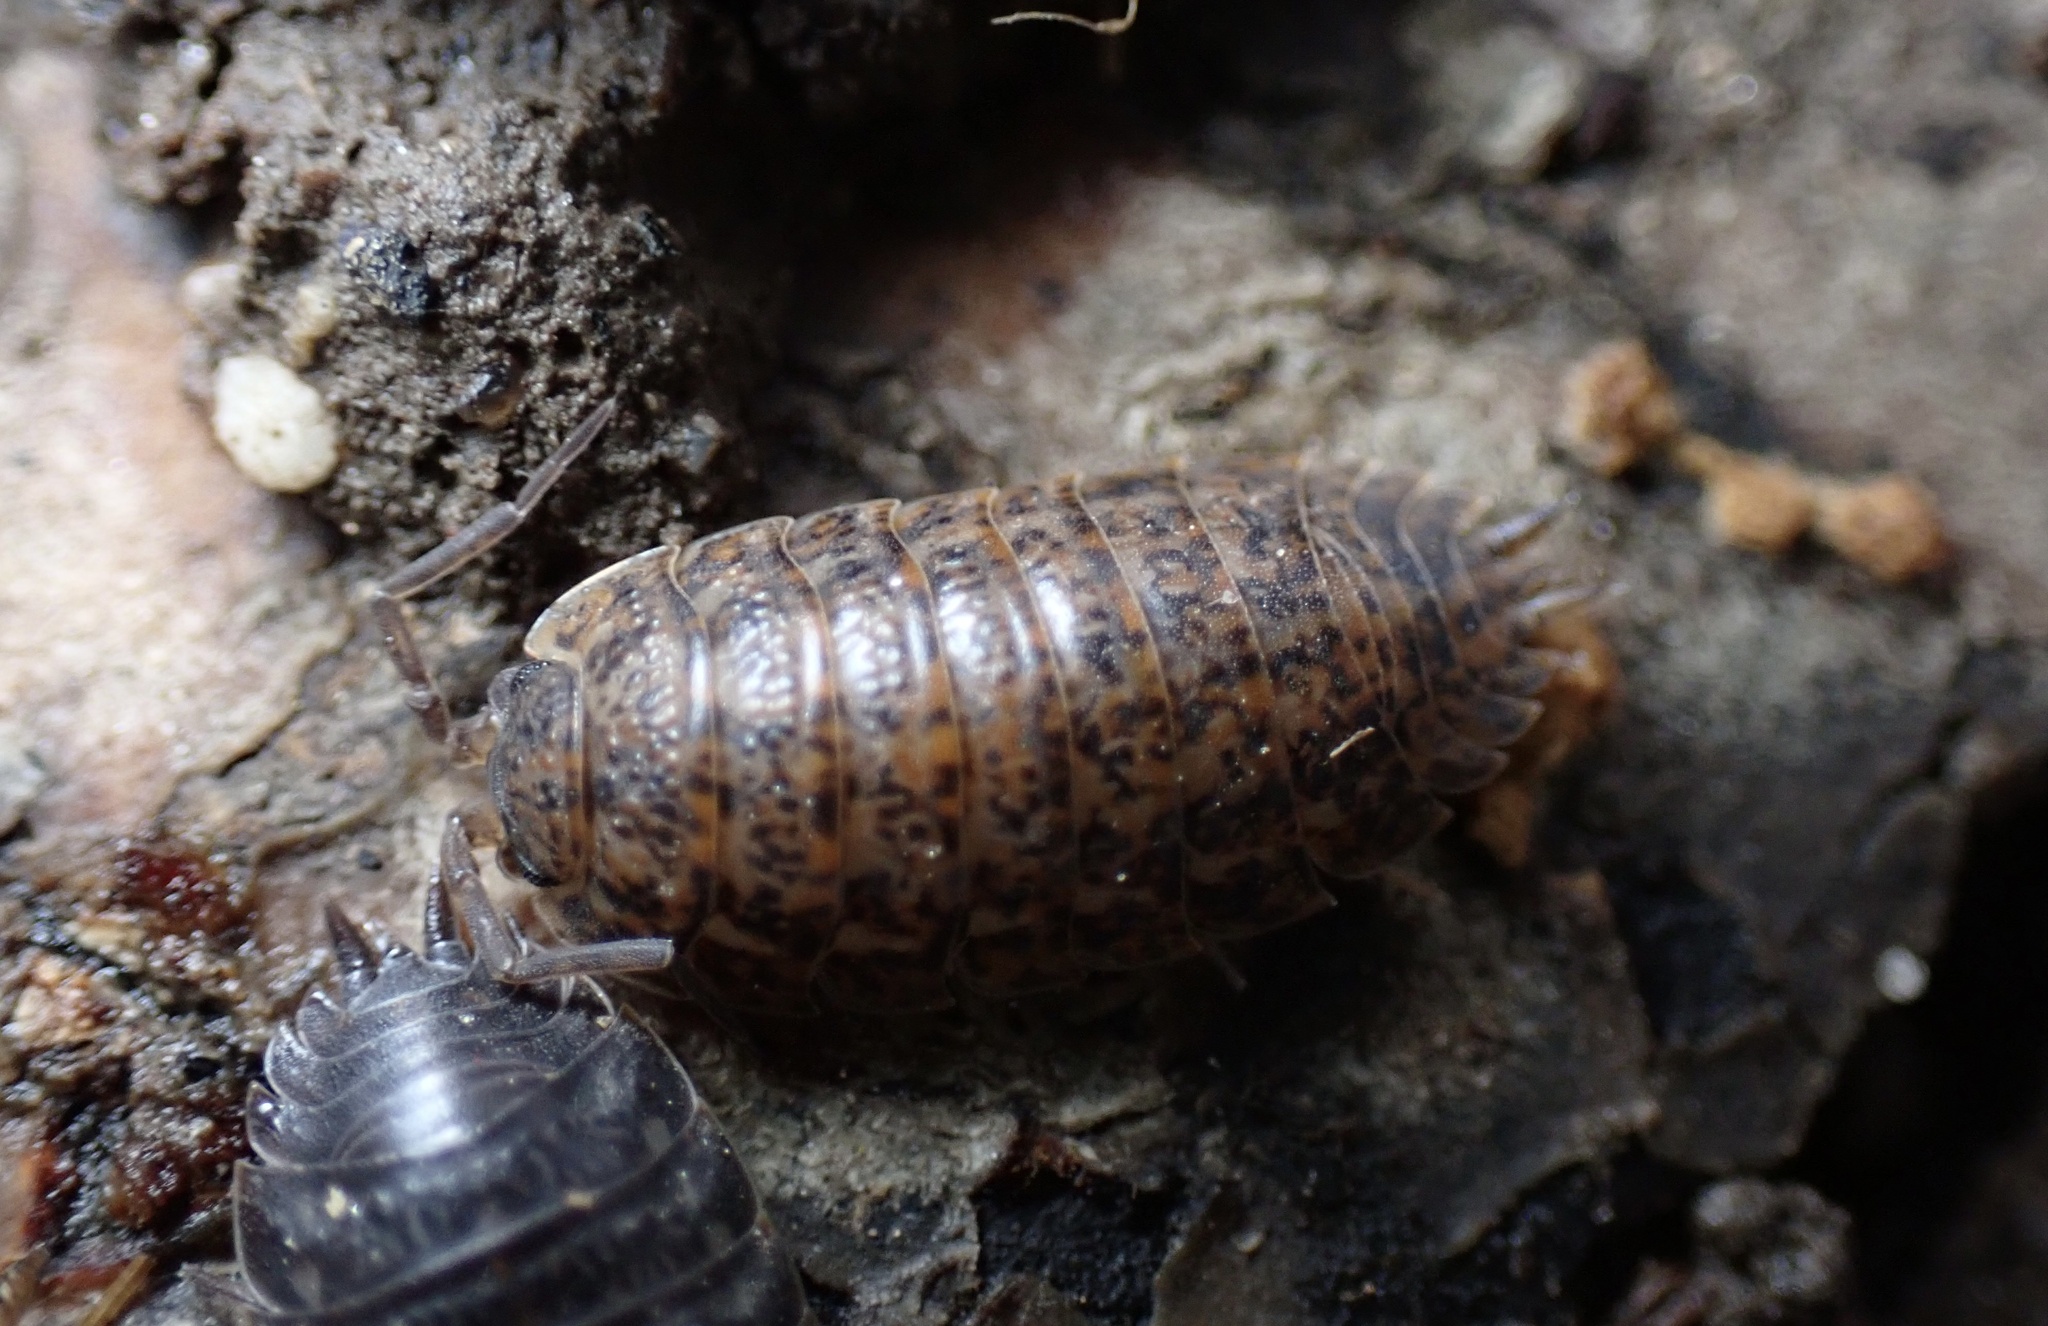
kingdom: Animalia
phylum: Arthropoda
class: Malacostraca
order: Isopoda
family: Trachelipodidae
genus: Trachelipus
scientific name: Trachelipus rathkii
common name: Isopod
